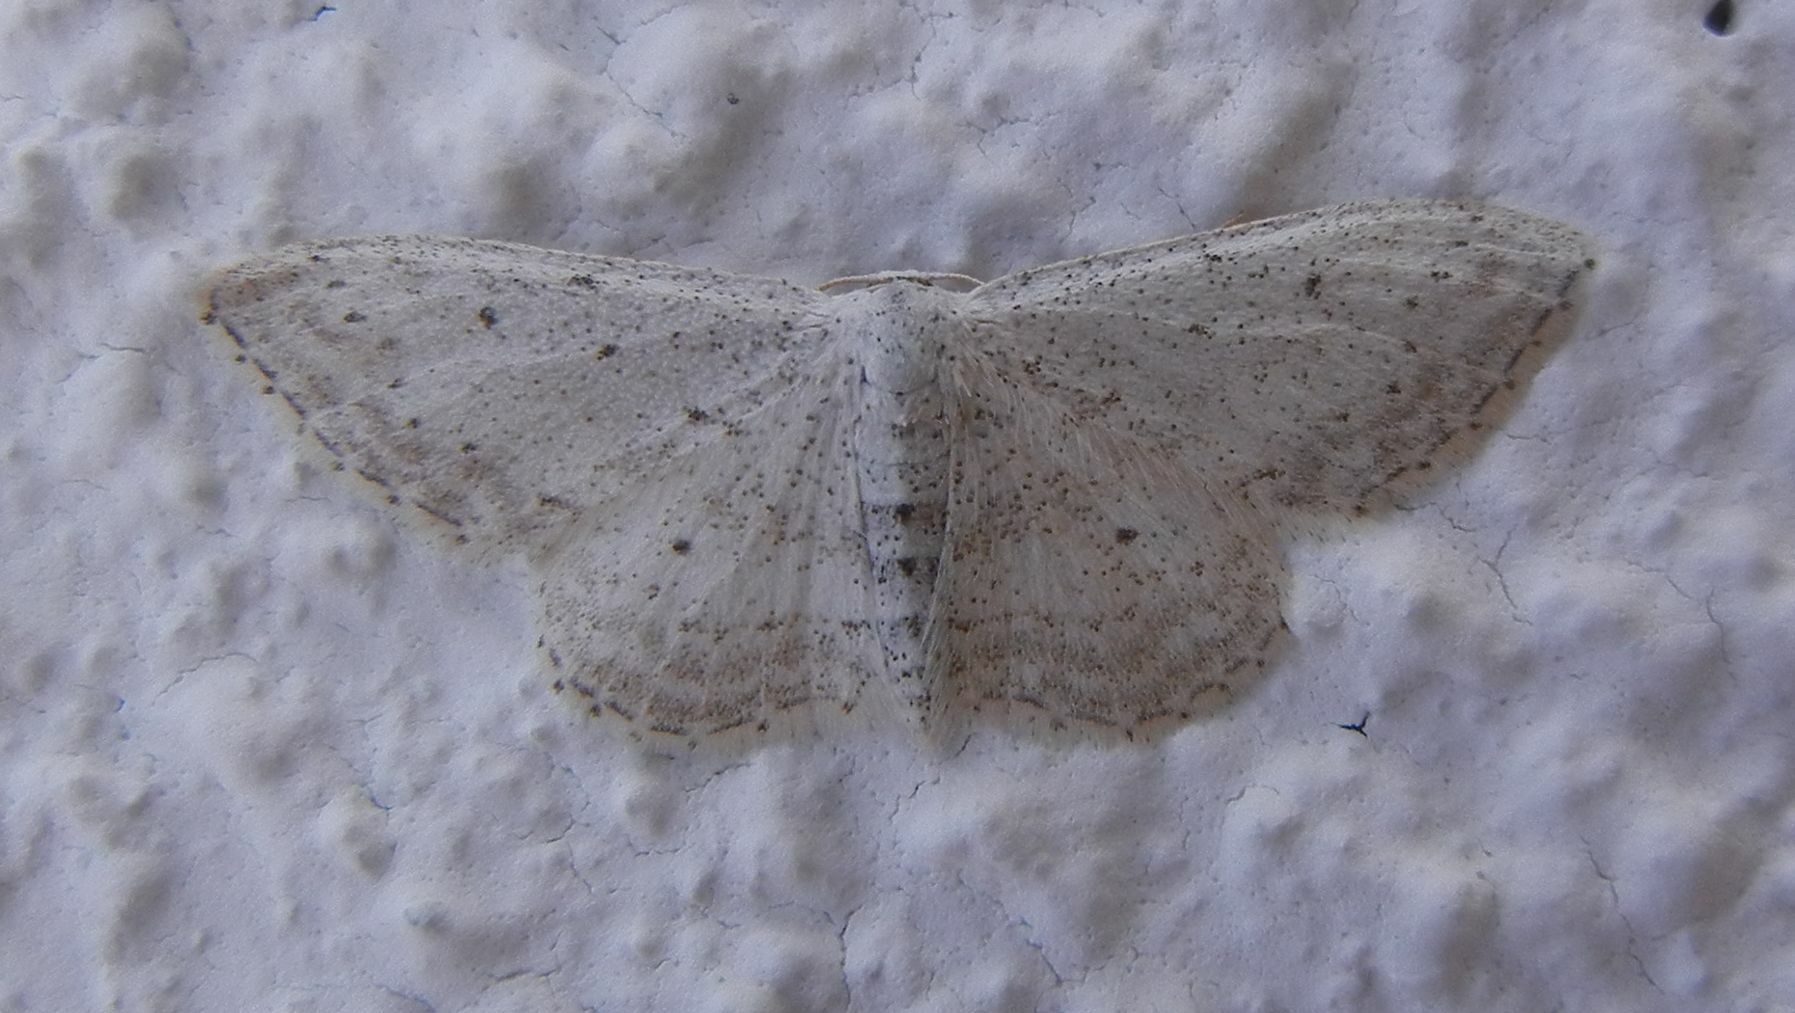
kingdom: Animalia
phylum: Arthropoda
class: Insecta
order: Lepidoptera
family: Geometridae
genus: Idaea
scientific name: Idaea incisaria
